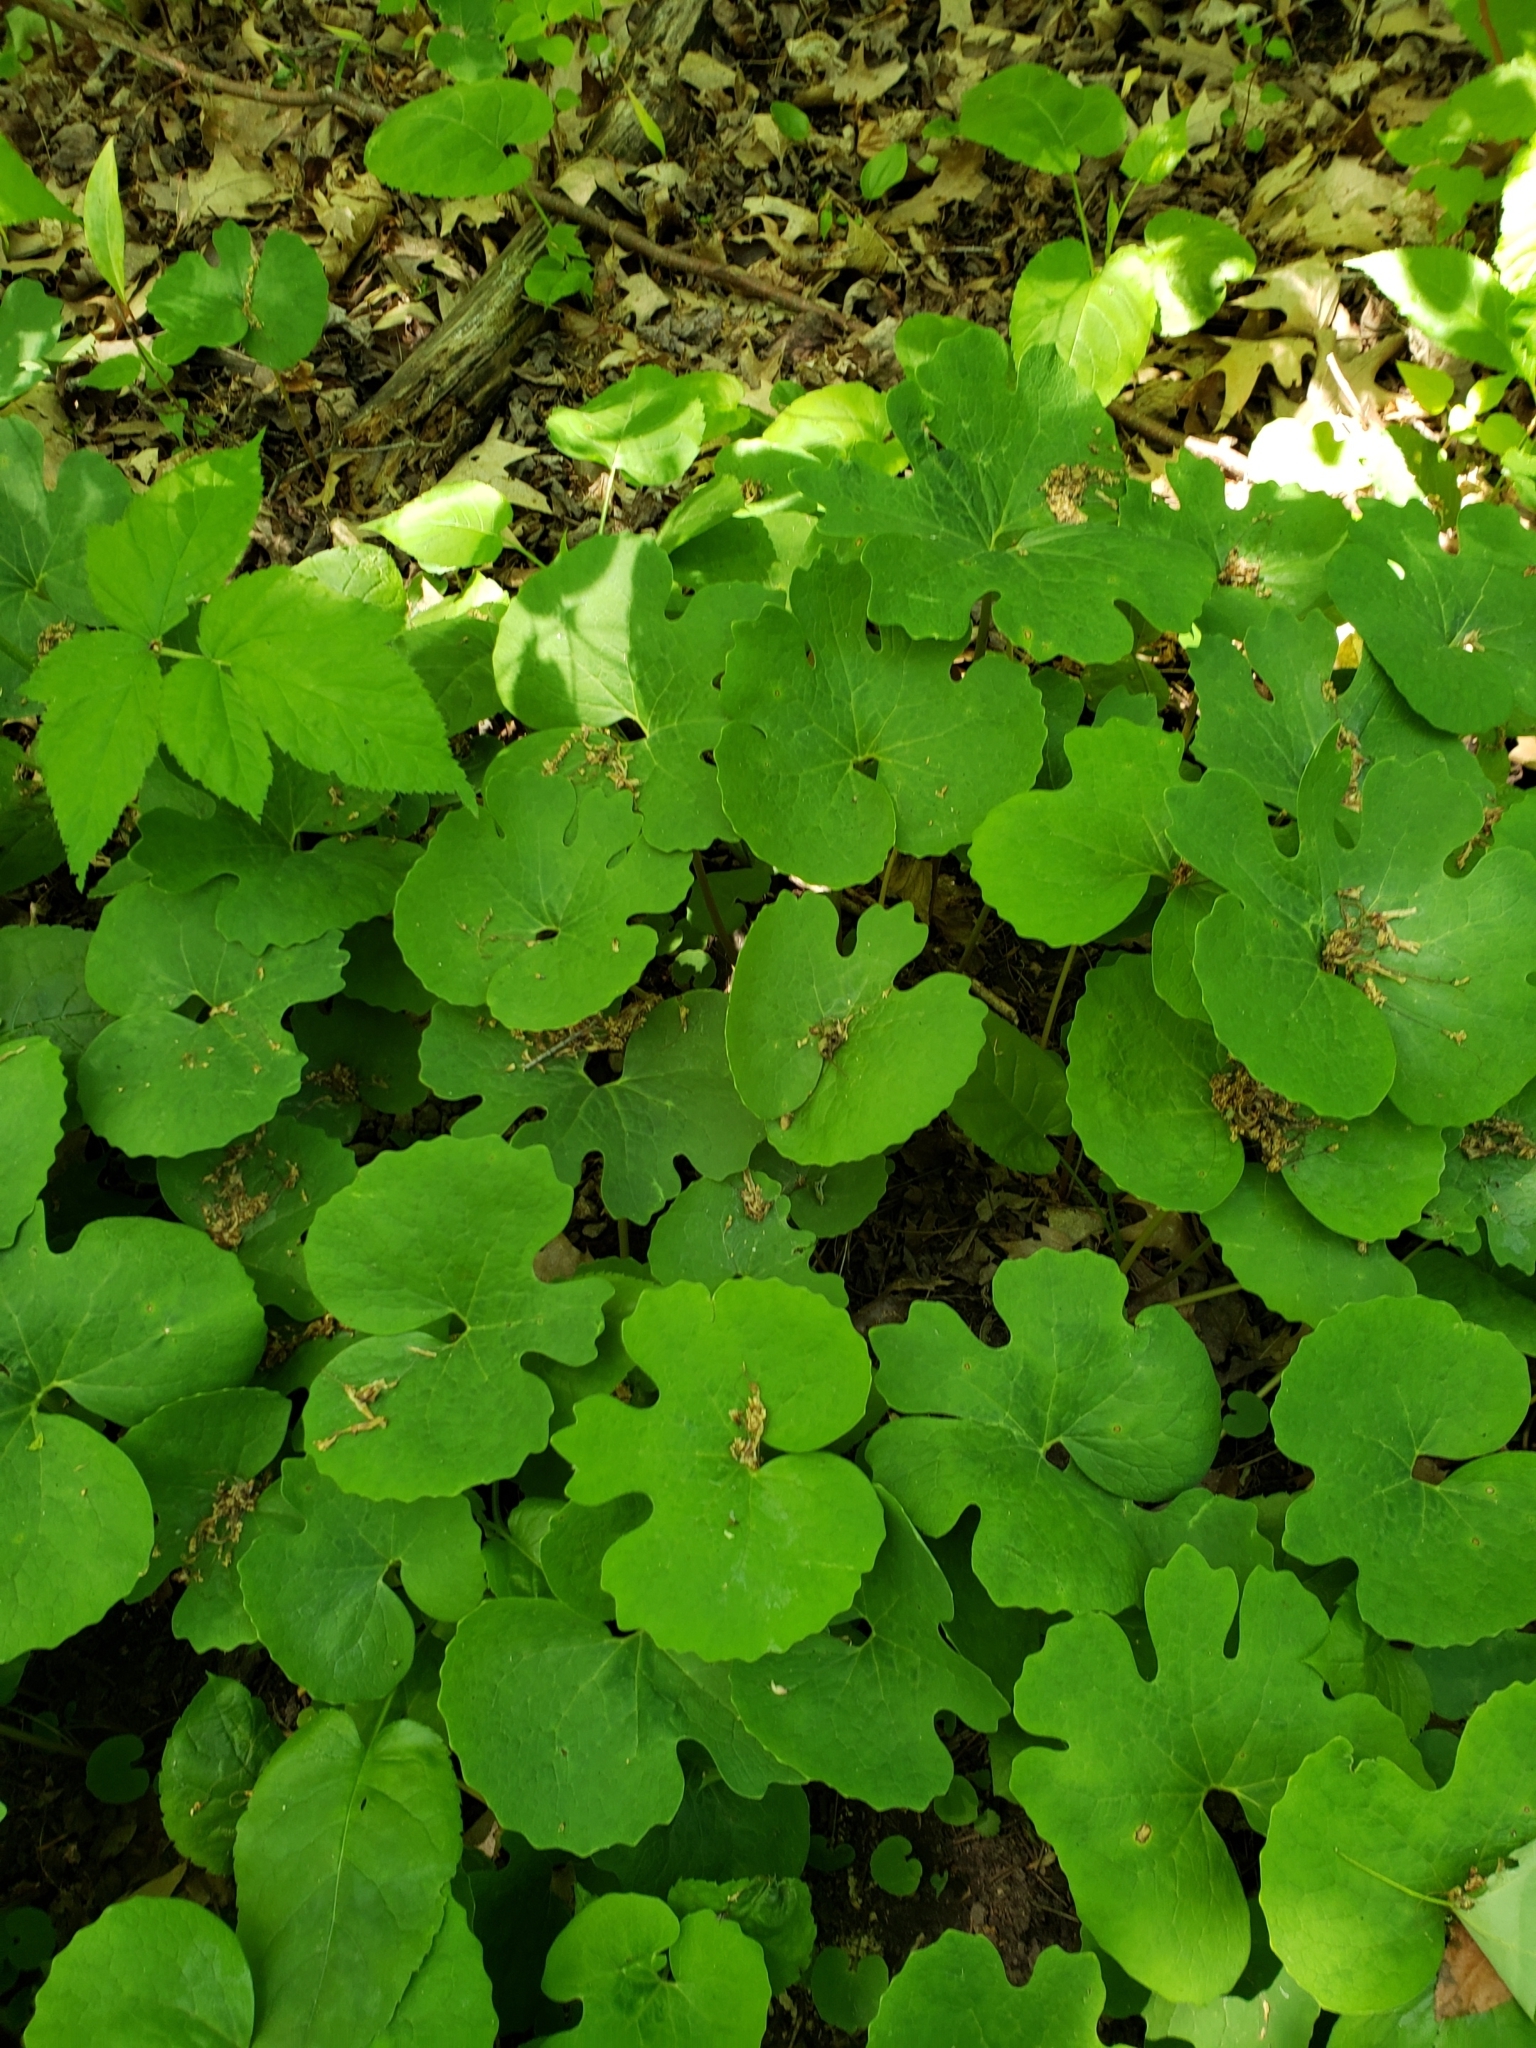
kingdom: Plantae
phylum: Tracheophyta
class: Magnoliopsida
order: Ranunculales
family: Papaveraceae
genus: Sanguinaria
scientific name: Sanguinaria canadensis
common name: Bloodroot
